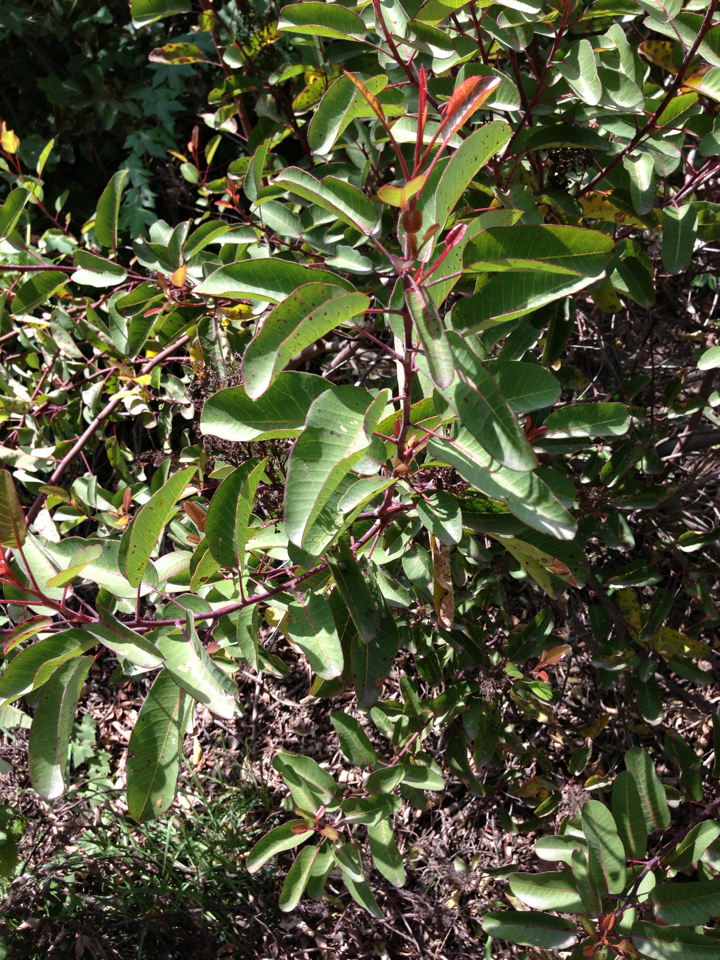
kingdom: Plantae
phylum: Tracheophyta
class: Magnoliopsida
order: Sapindales
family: Anacardiaceae
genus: Malosma
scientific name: Malosma laurina
